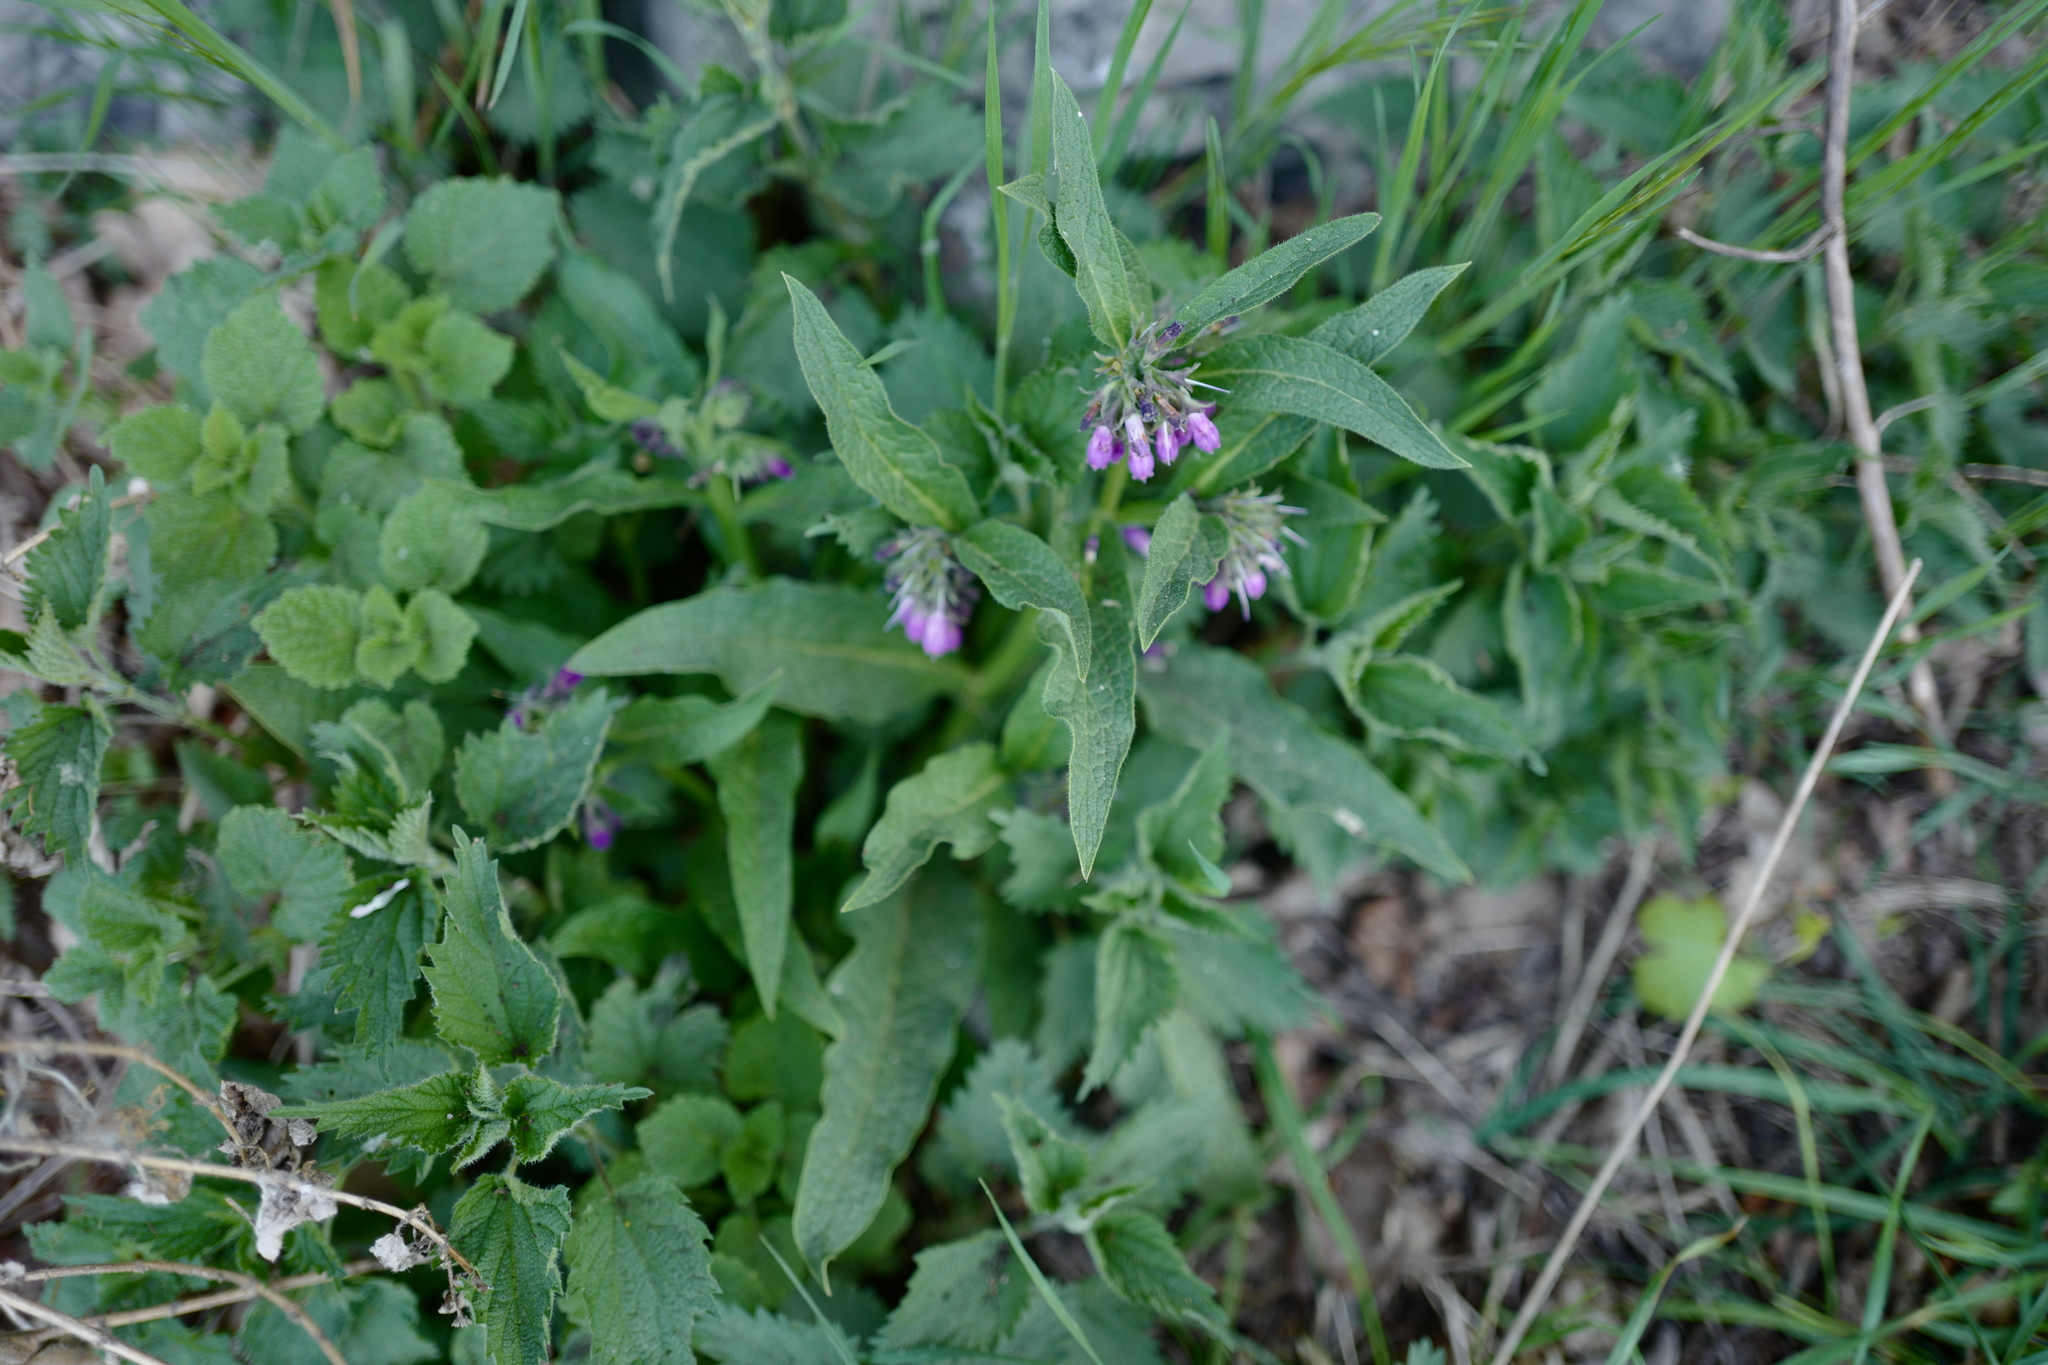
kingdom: Plantae
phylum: Tracheophyta
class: Magnoliopsida
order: Boraginales
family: Boraginaceae
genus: Symphytum
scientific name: Symphytum officinale
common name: Common comfrey
